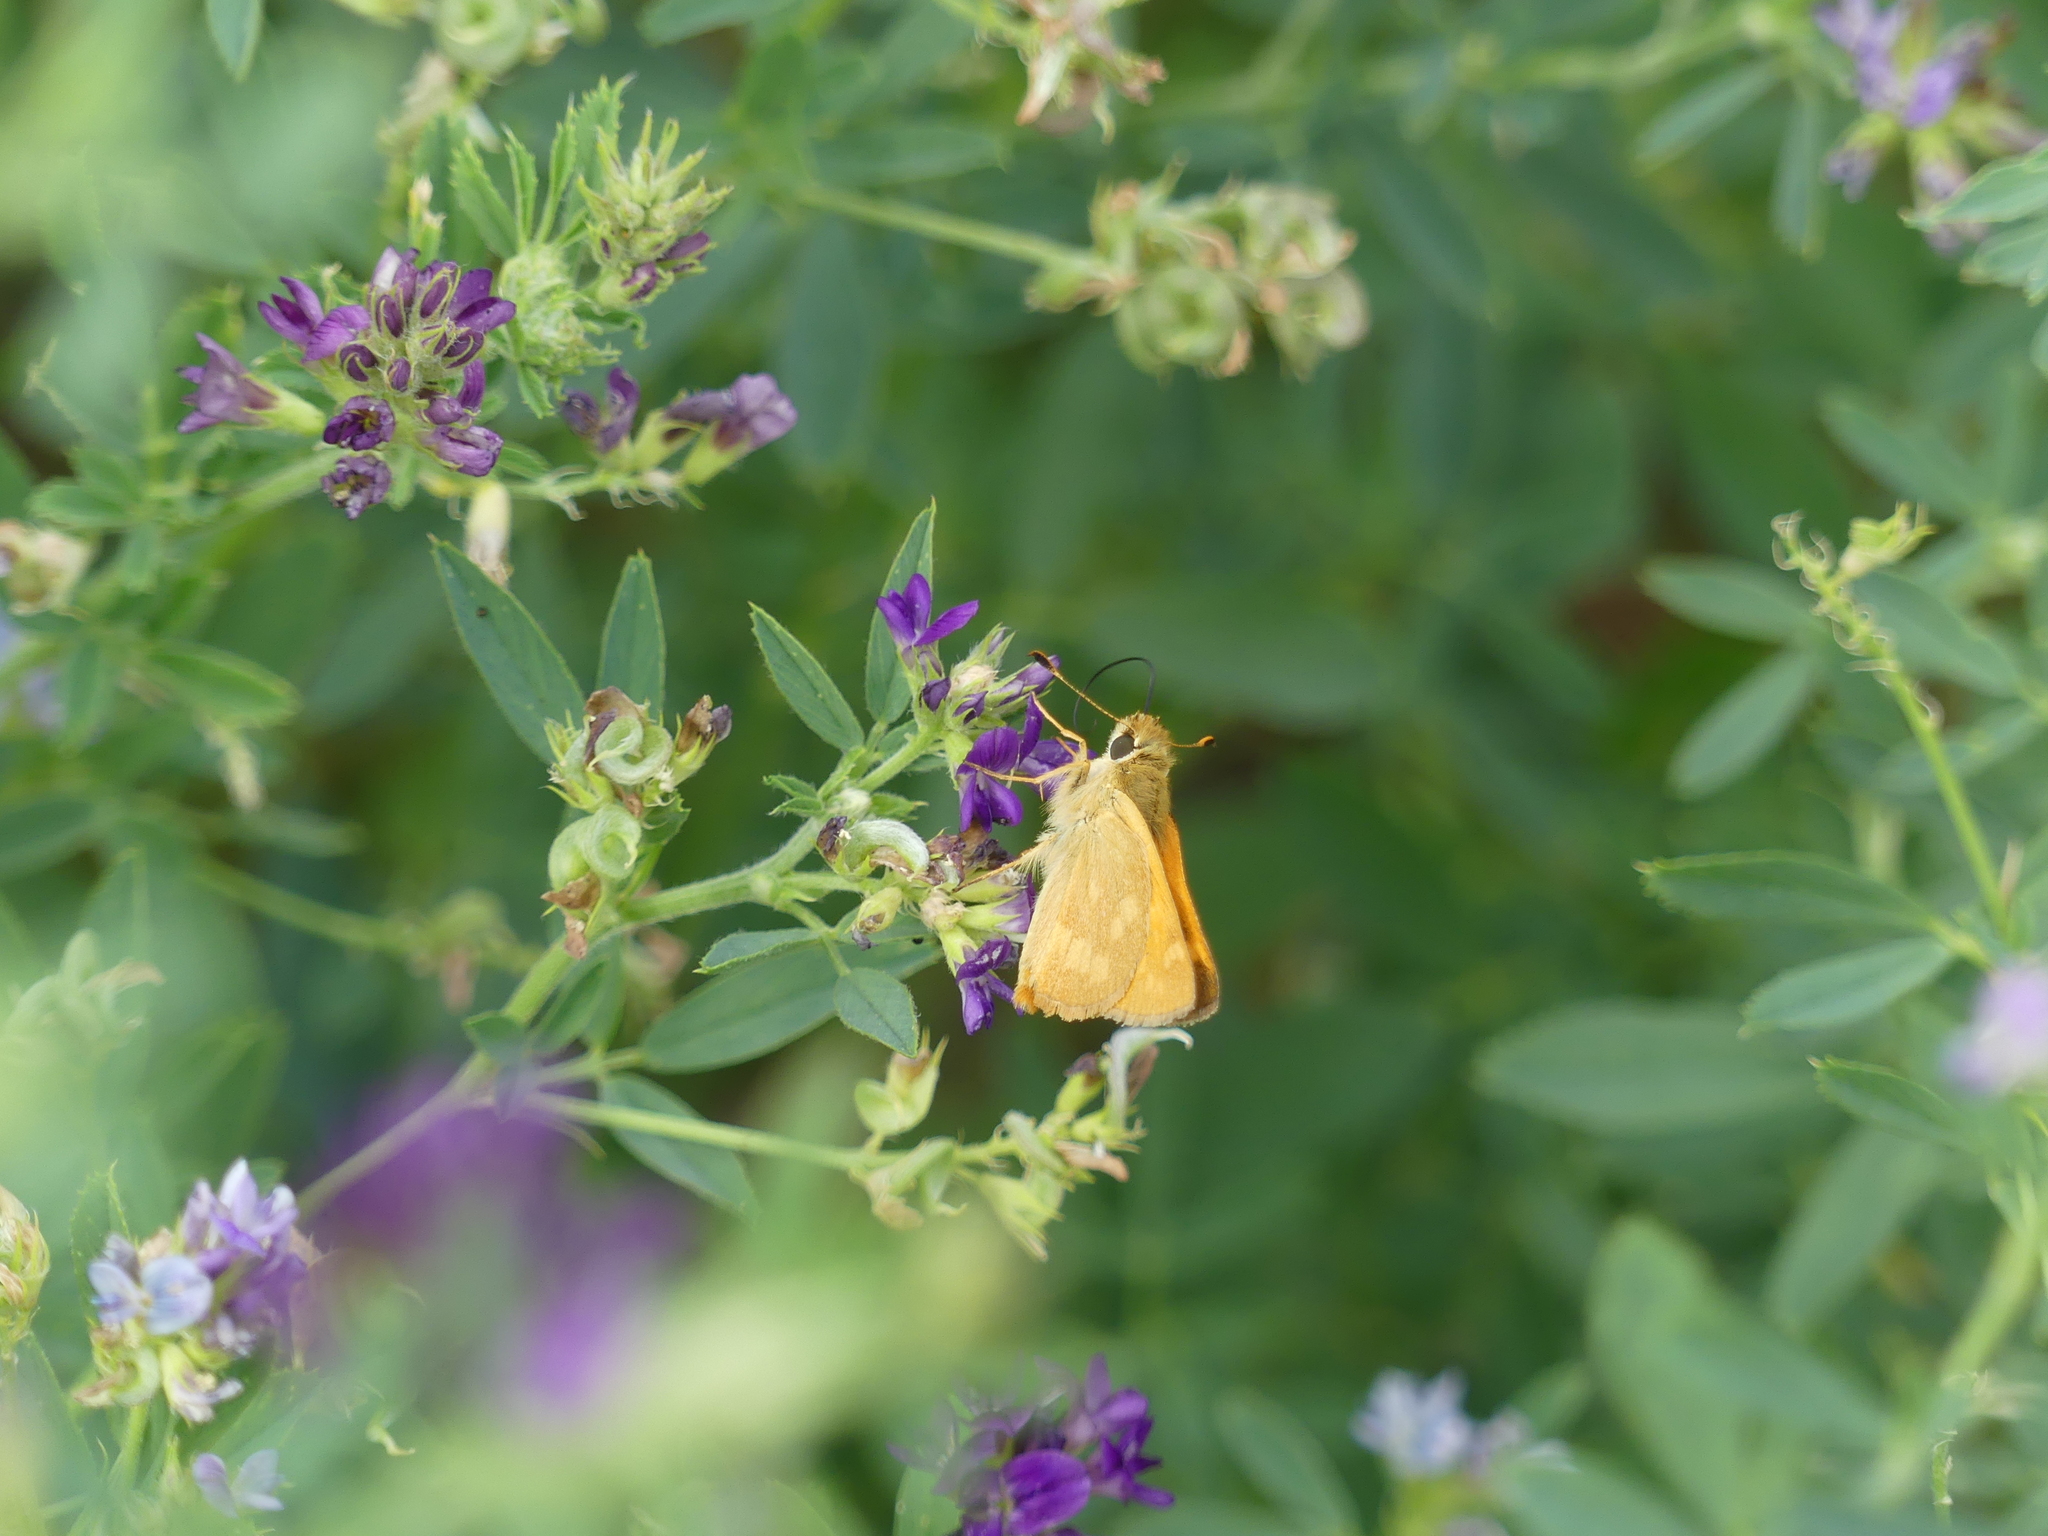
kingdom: Animalia
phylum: Arthropoda
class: Insecta
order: Lepidoptera
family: Hesperiidae
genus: Ochlodes
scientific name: Ochlodes sylvanoides
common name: Woodland skipper
